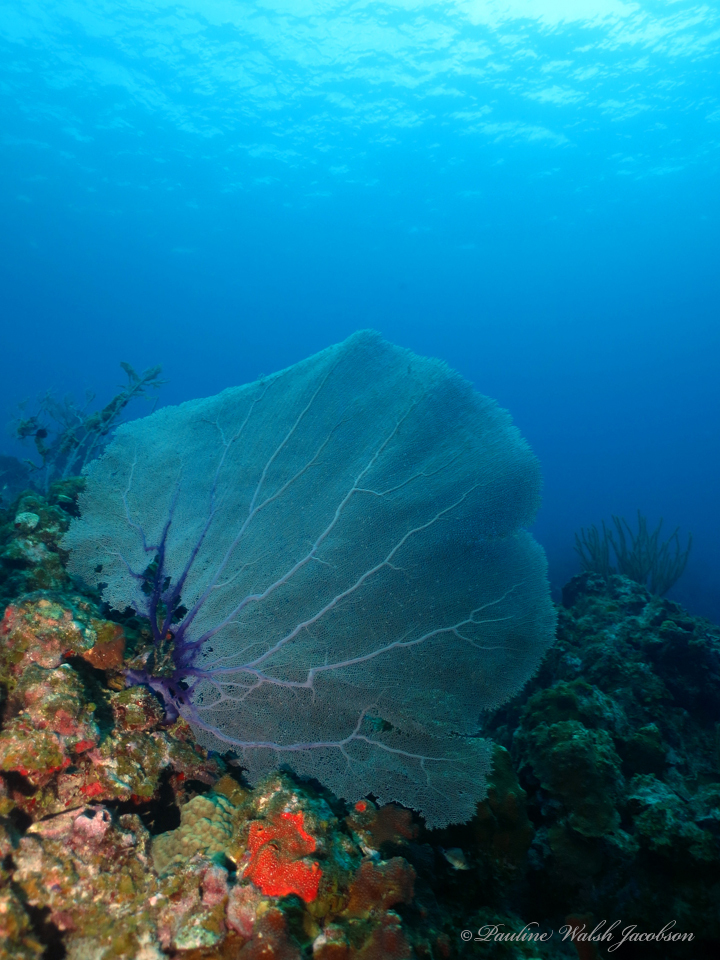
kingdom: Animalia
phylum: Cnidaria
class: Anthozoa
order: Malacalcyonacea
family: Gorgoniidae
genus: Gorgonia
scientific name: Gorgonia ventalina
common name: Common sea fan
